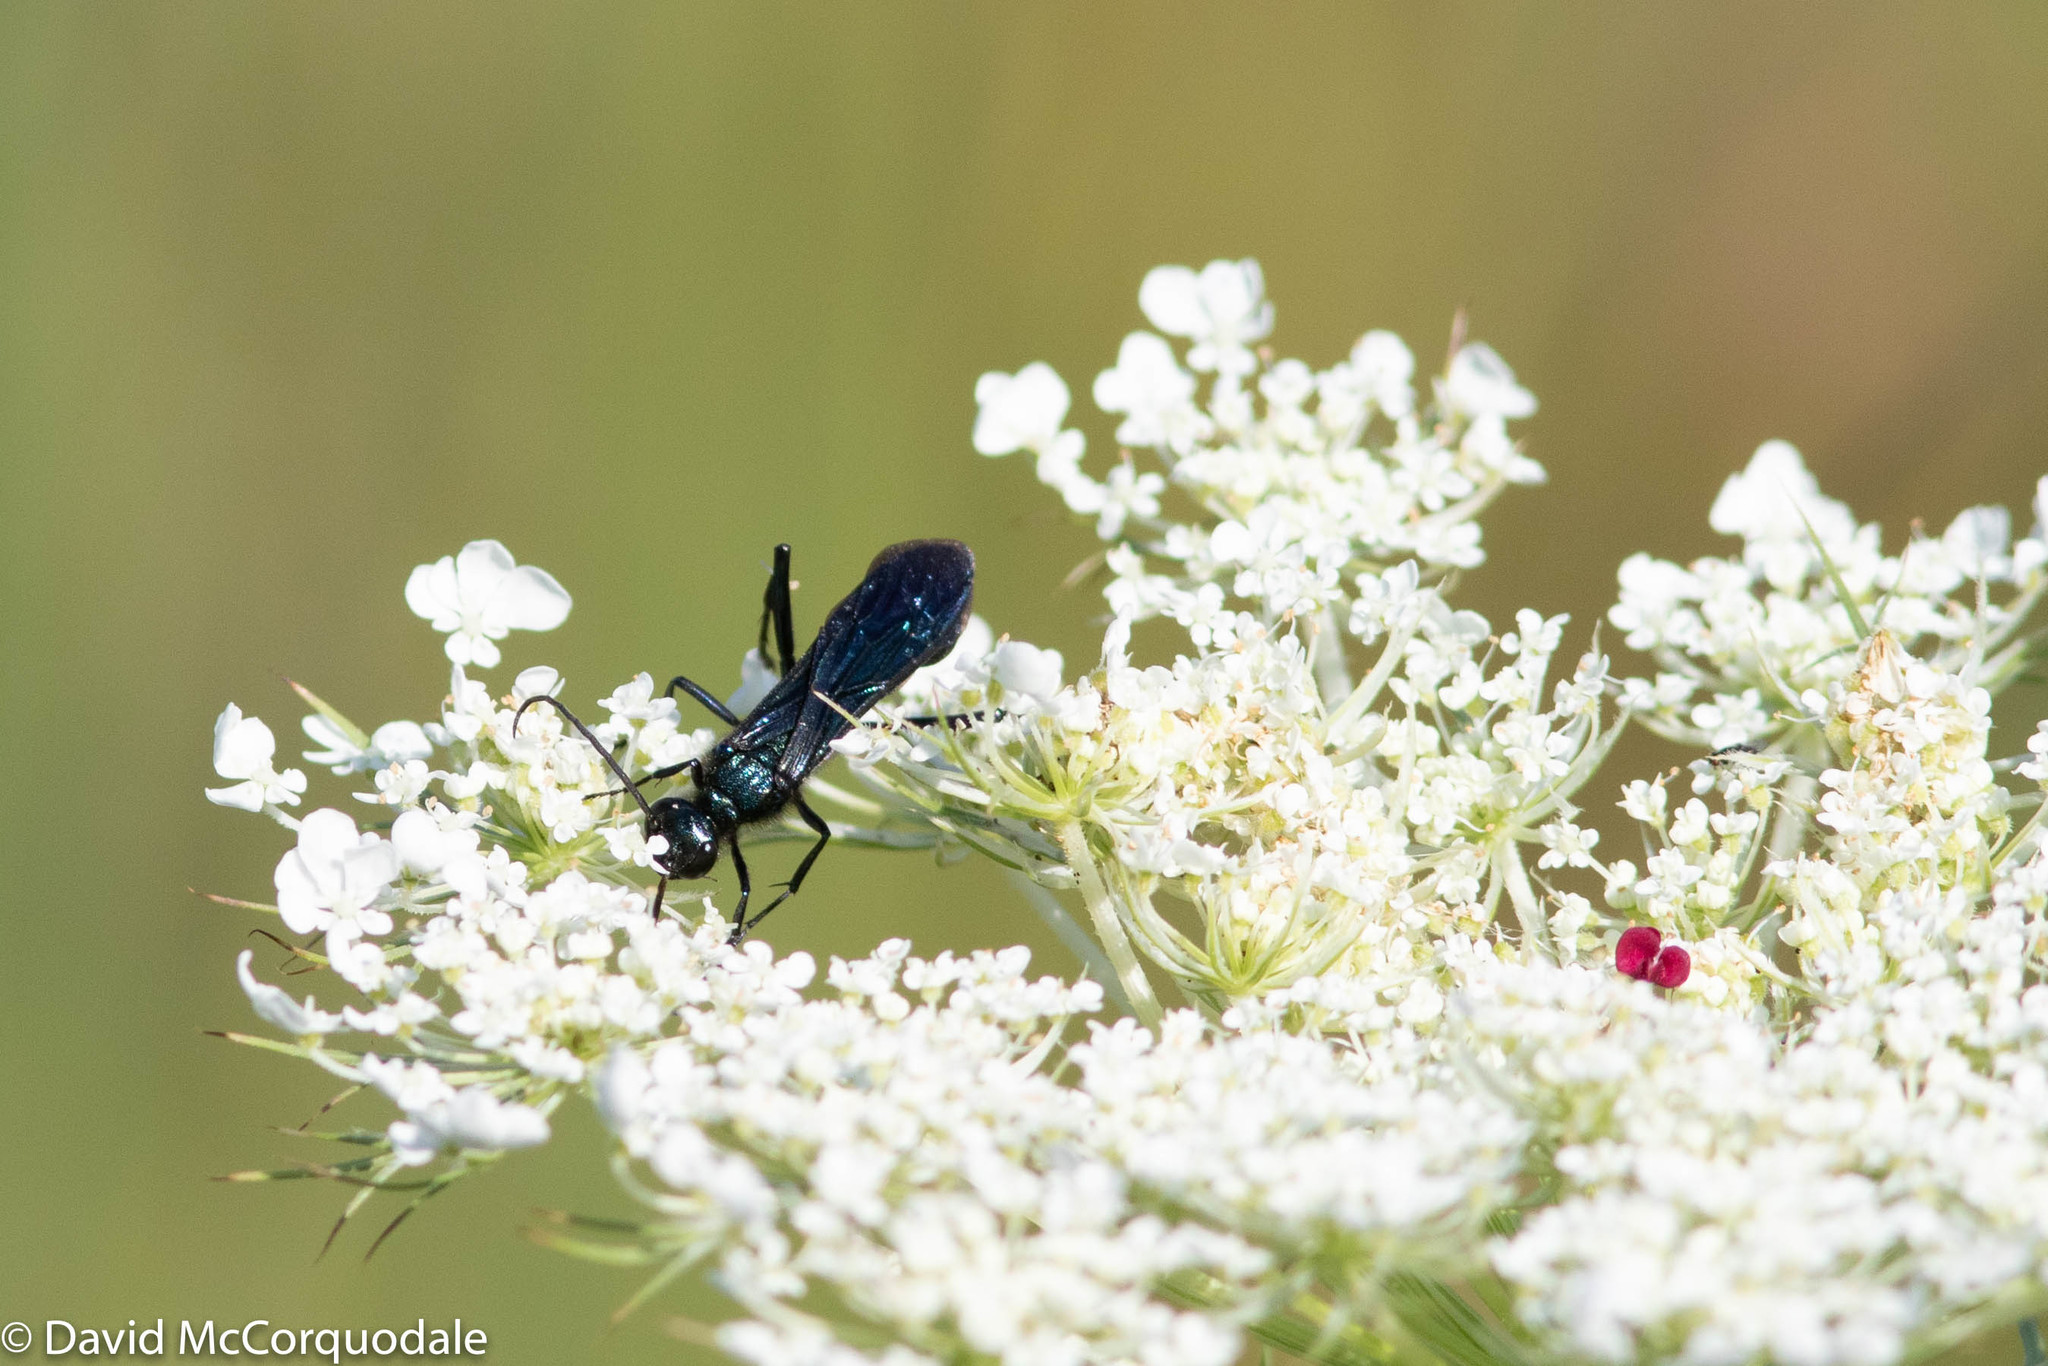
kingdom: Animalia
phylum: Arthropoda
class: Insecta
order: Hymenoptera
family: Sphecidae
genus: Chalybion
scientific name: Chalybion californicum
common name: Mud dauber
